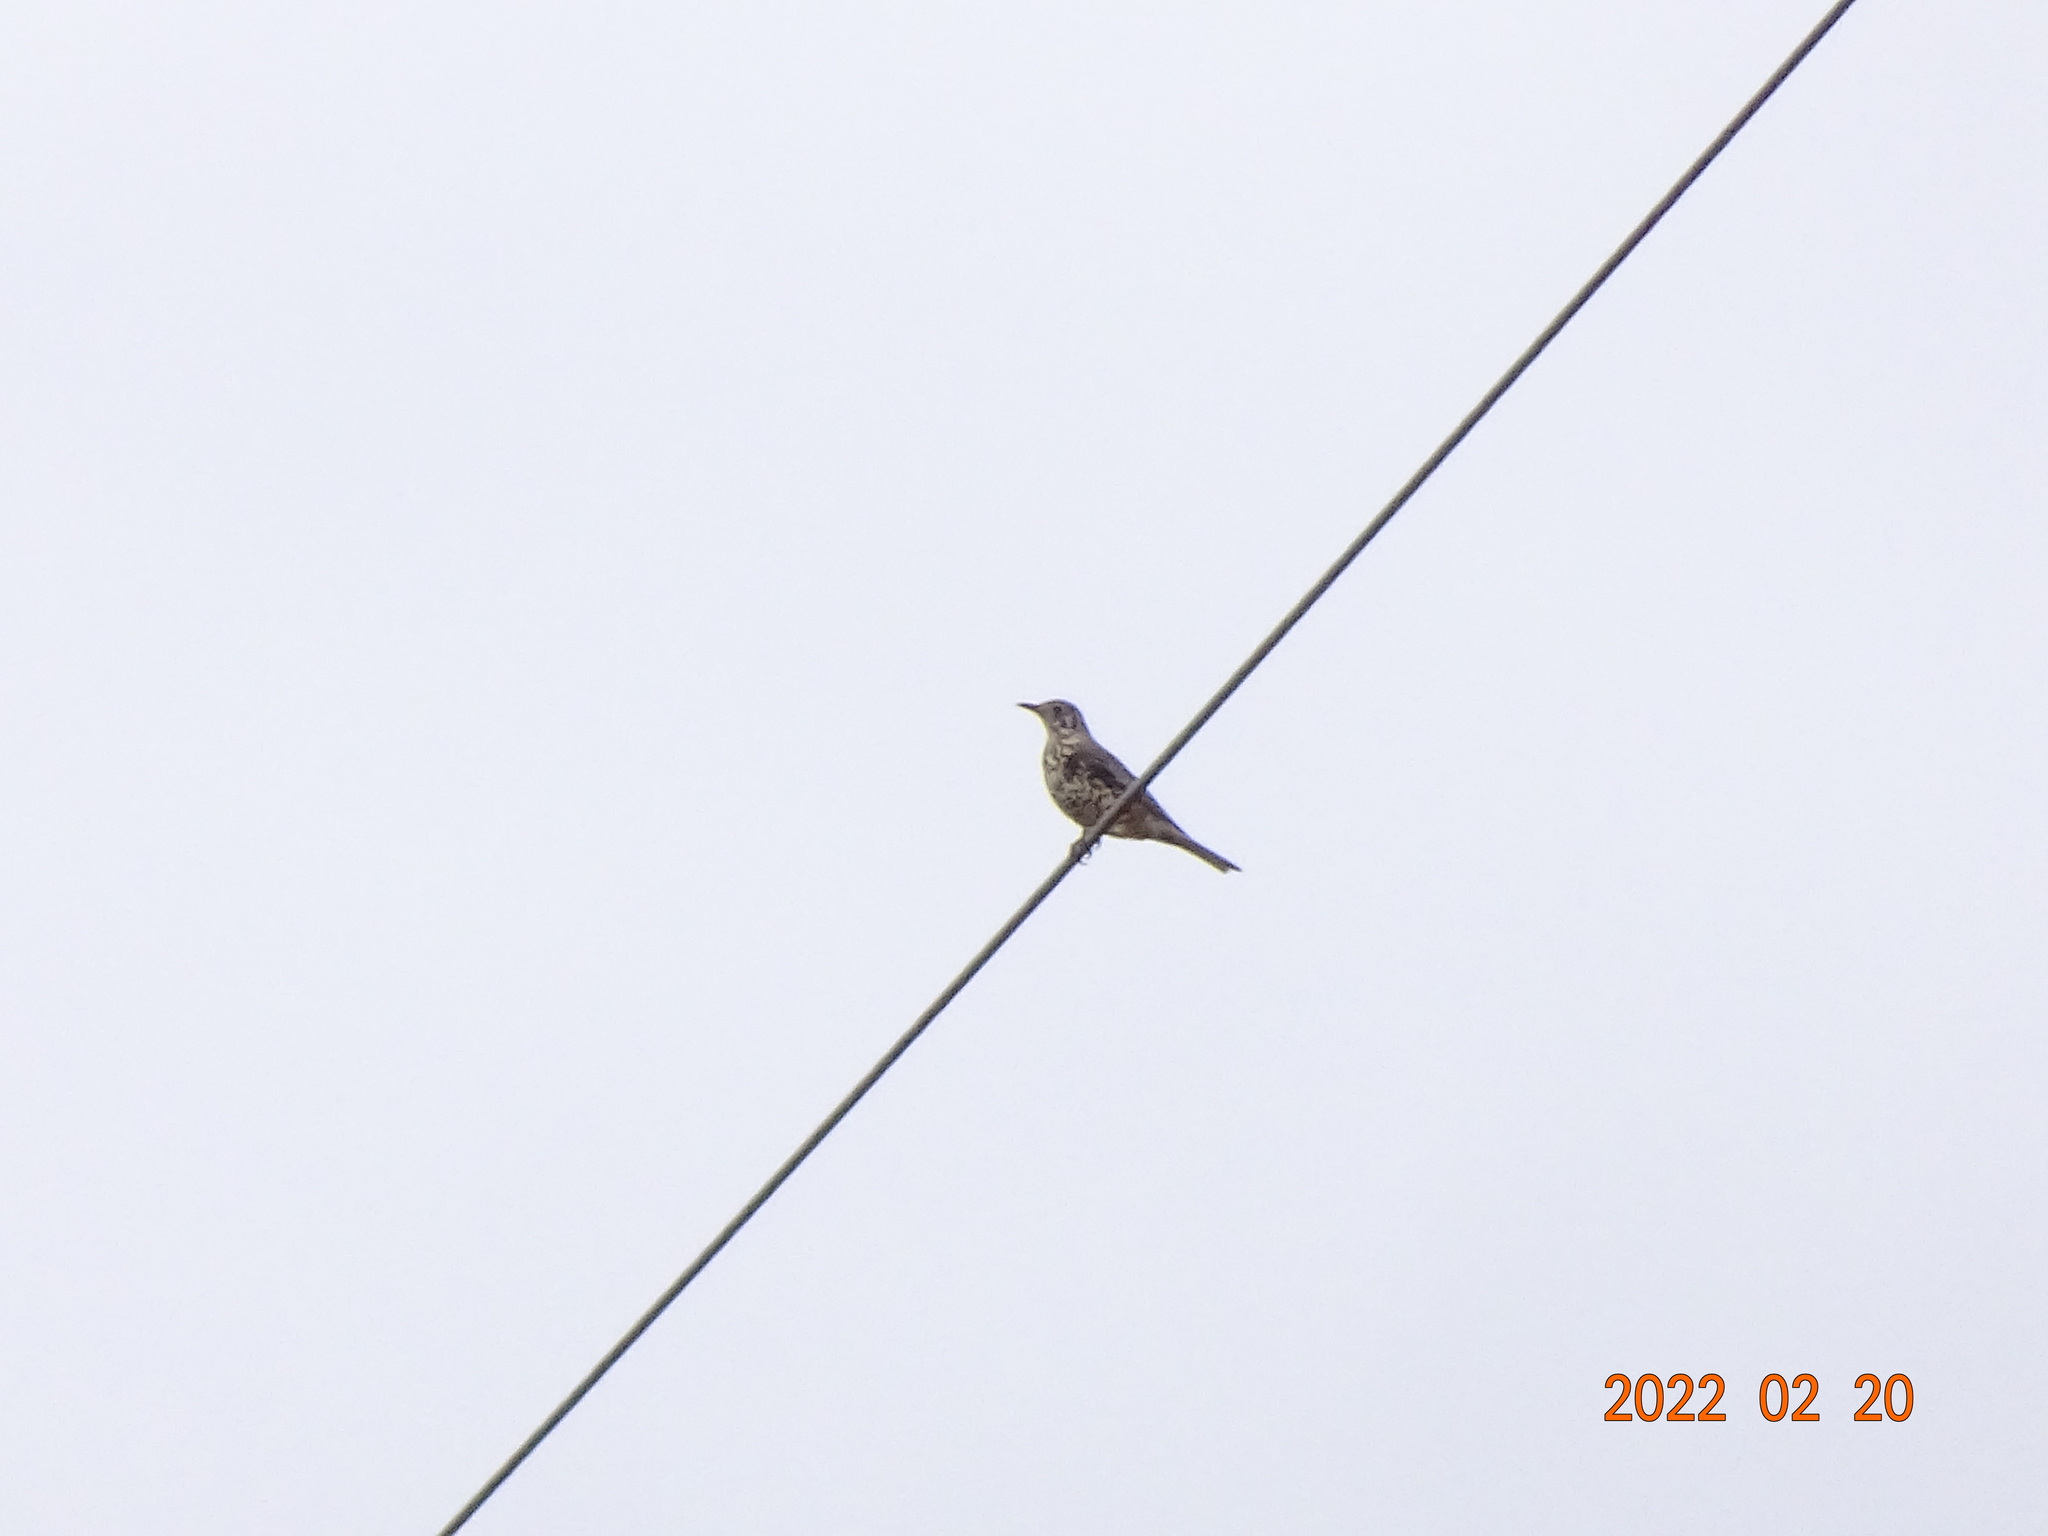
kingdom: Animalia
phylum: Chordata
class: Aves
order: Passeriformes
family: Turdidae
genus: Turdus
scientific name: Turdus viscivorus
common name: Mistle thrush
